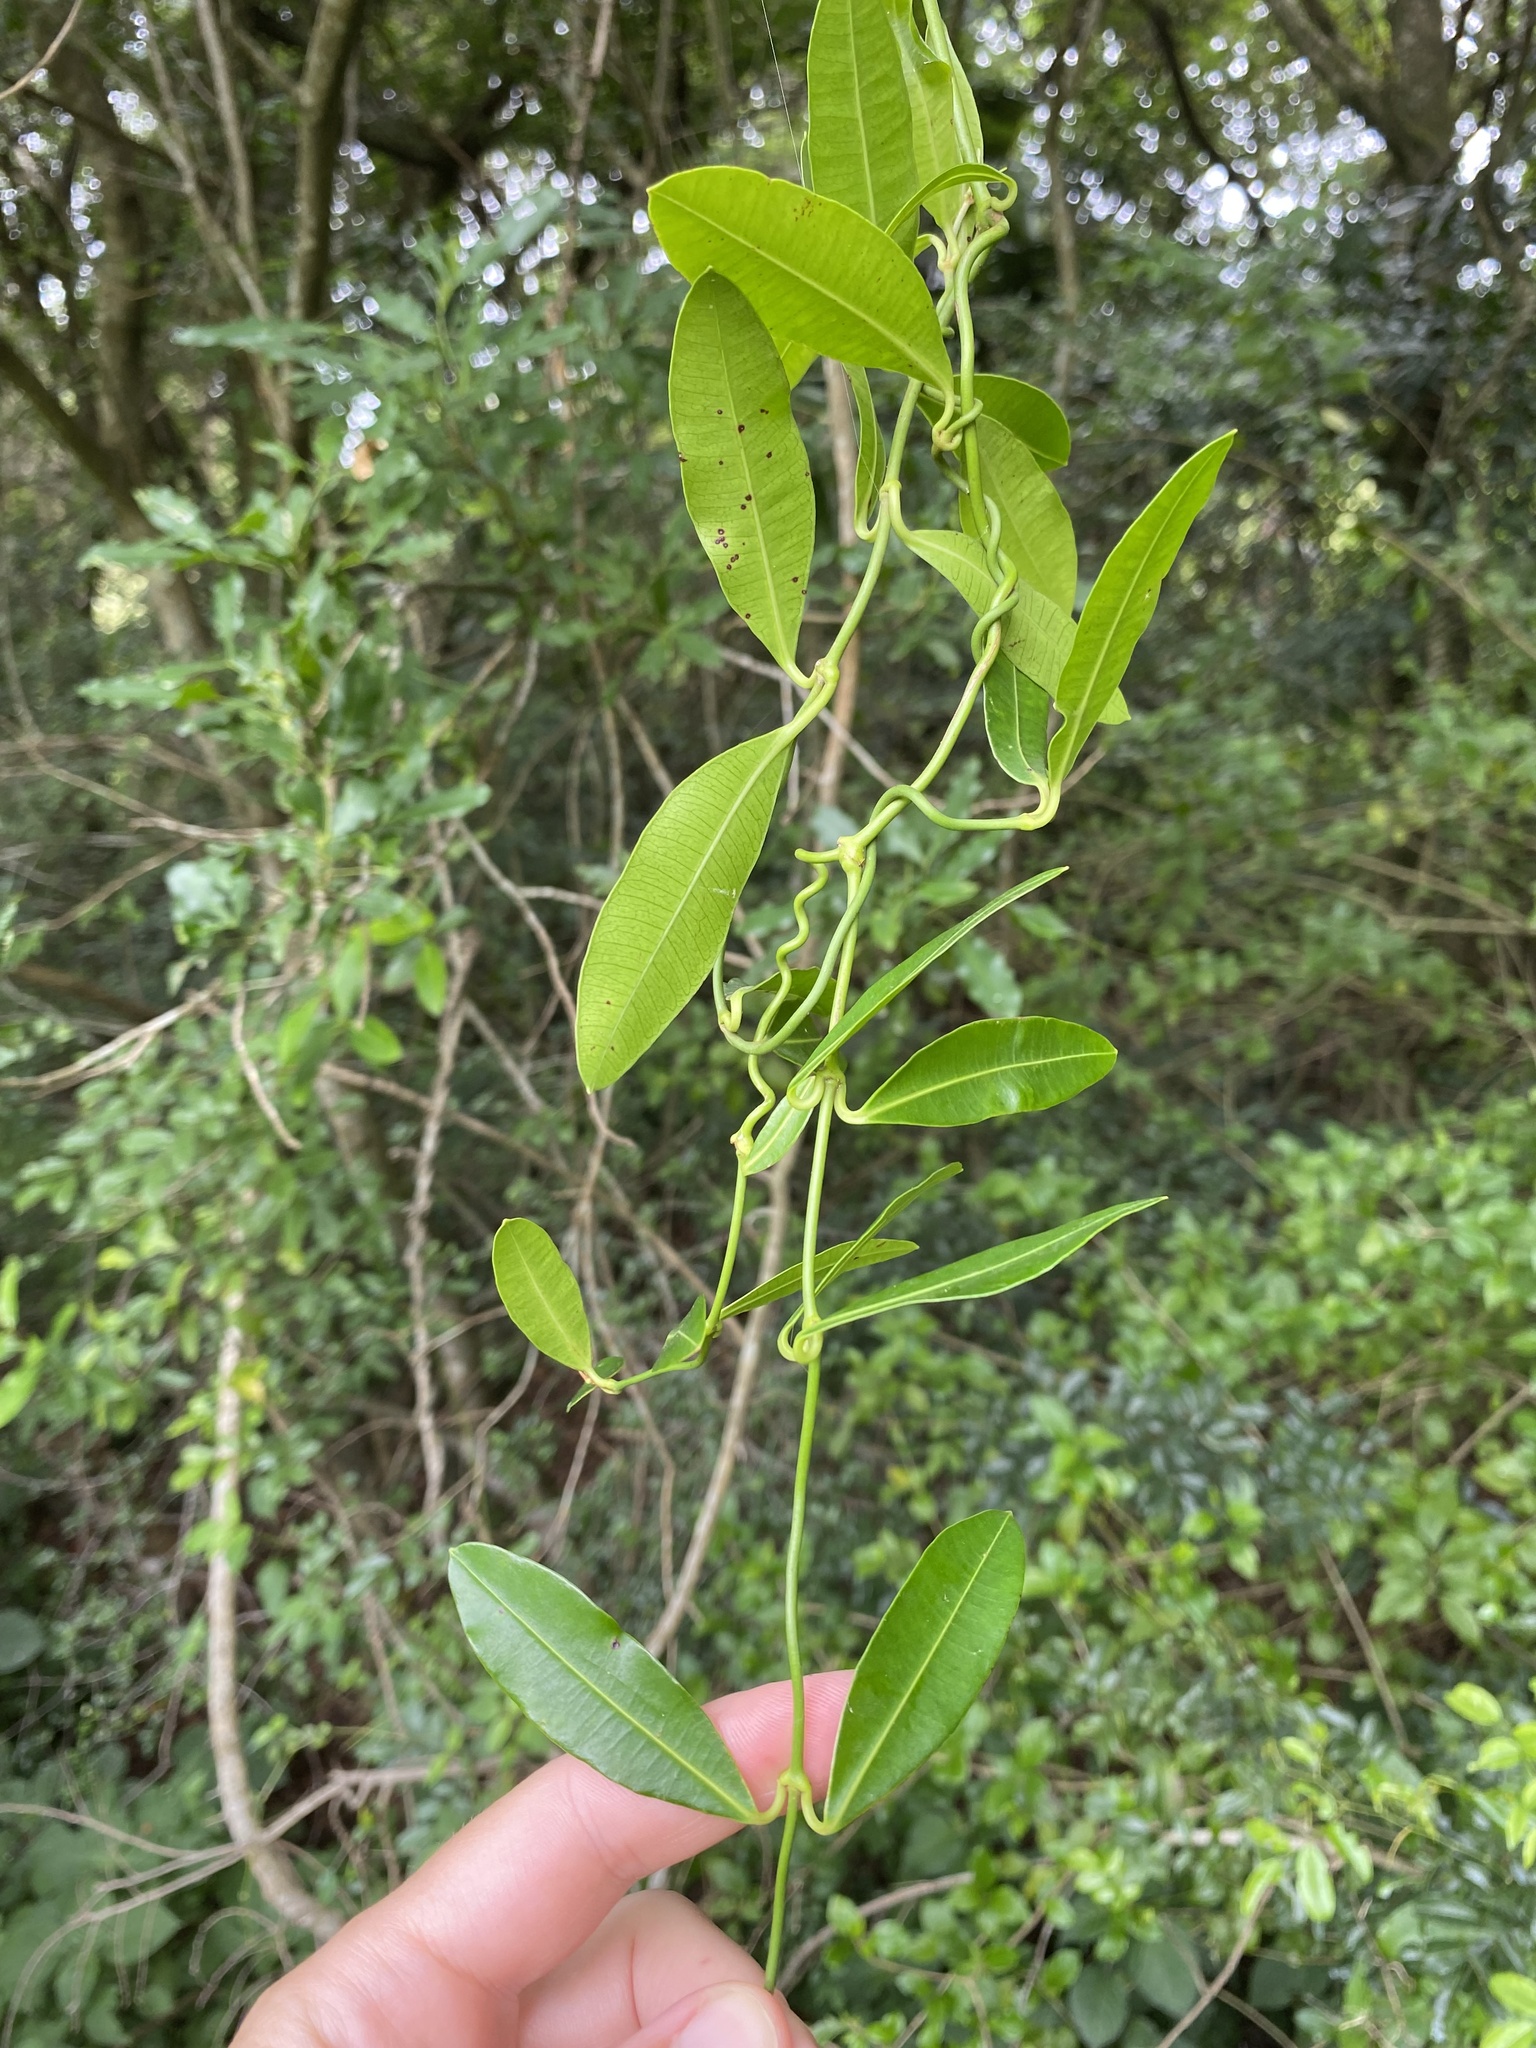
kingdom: Plantae
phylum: Tracheophyta
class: Magnoliopsida
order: Gentianales
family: Apocynaceae
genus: Secamone
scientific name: Secamone alpini
